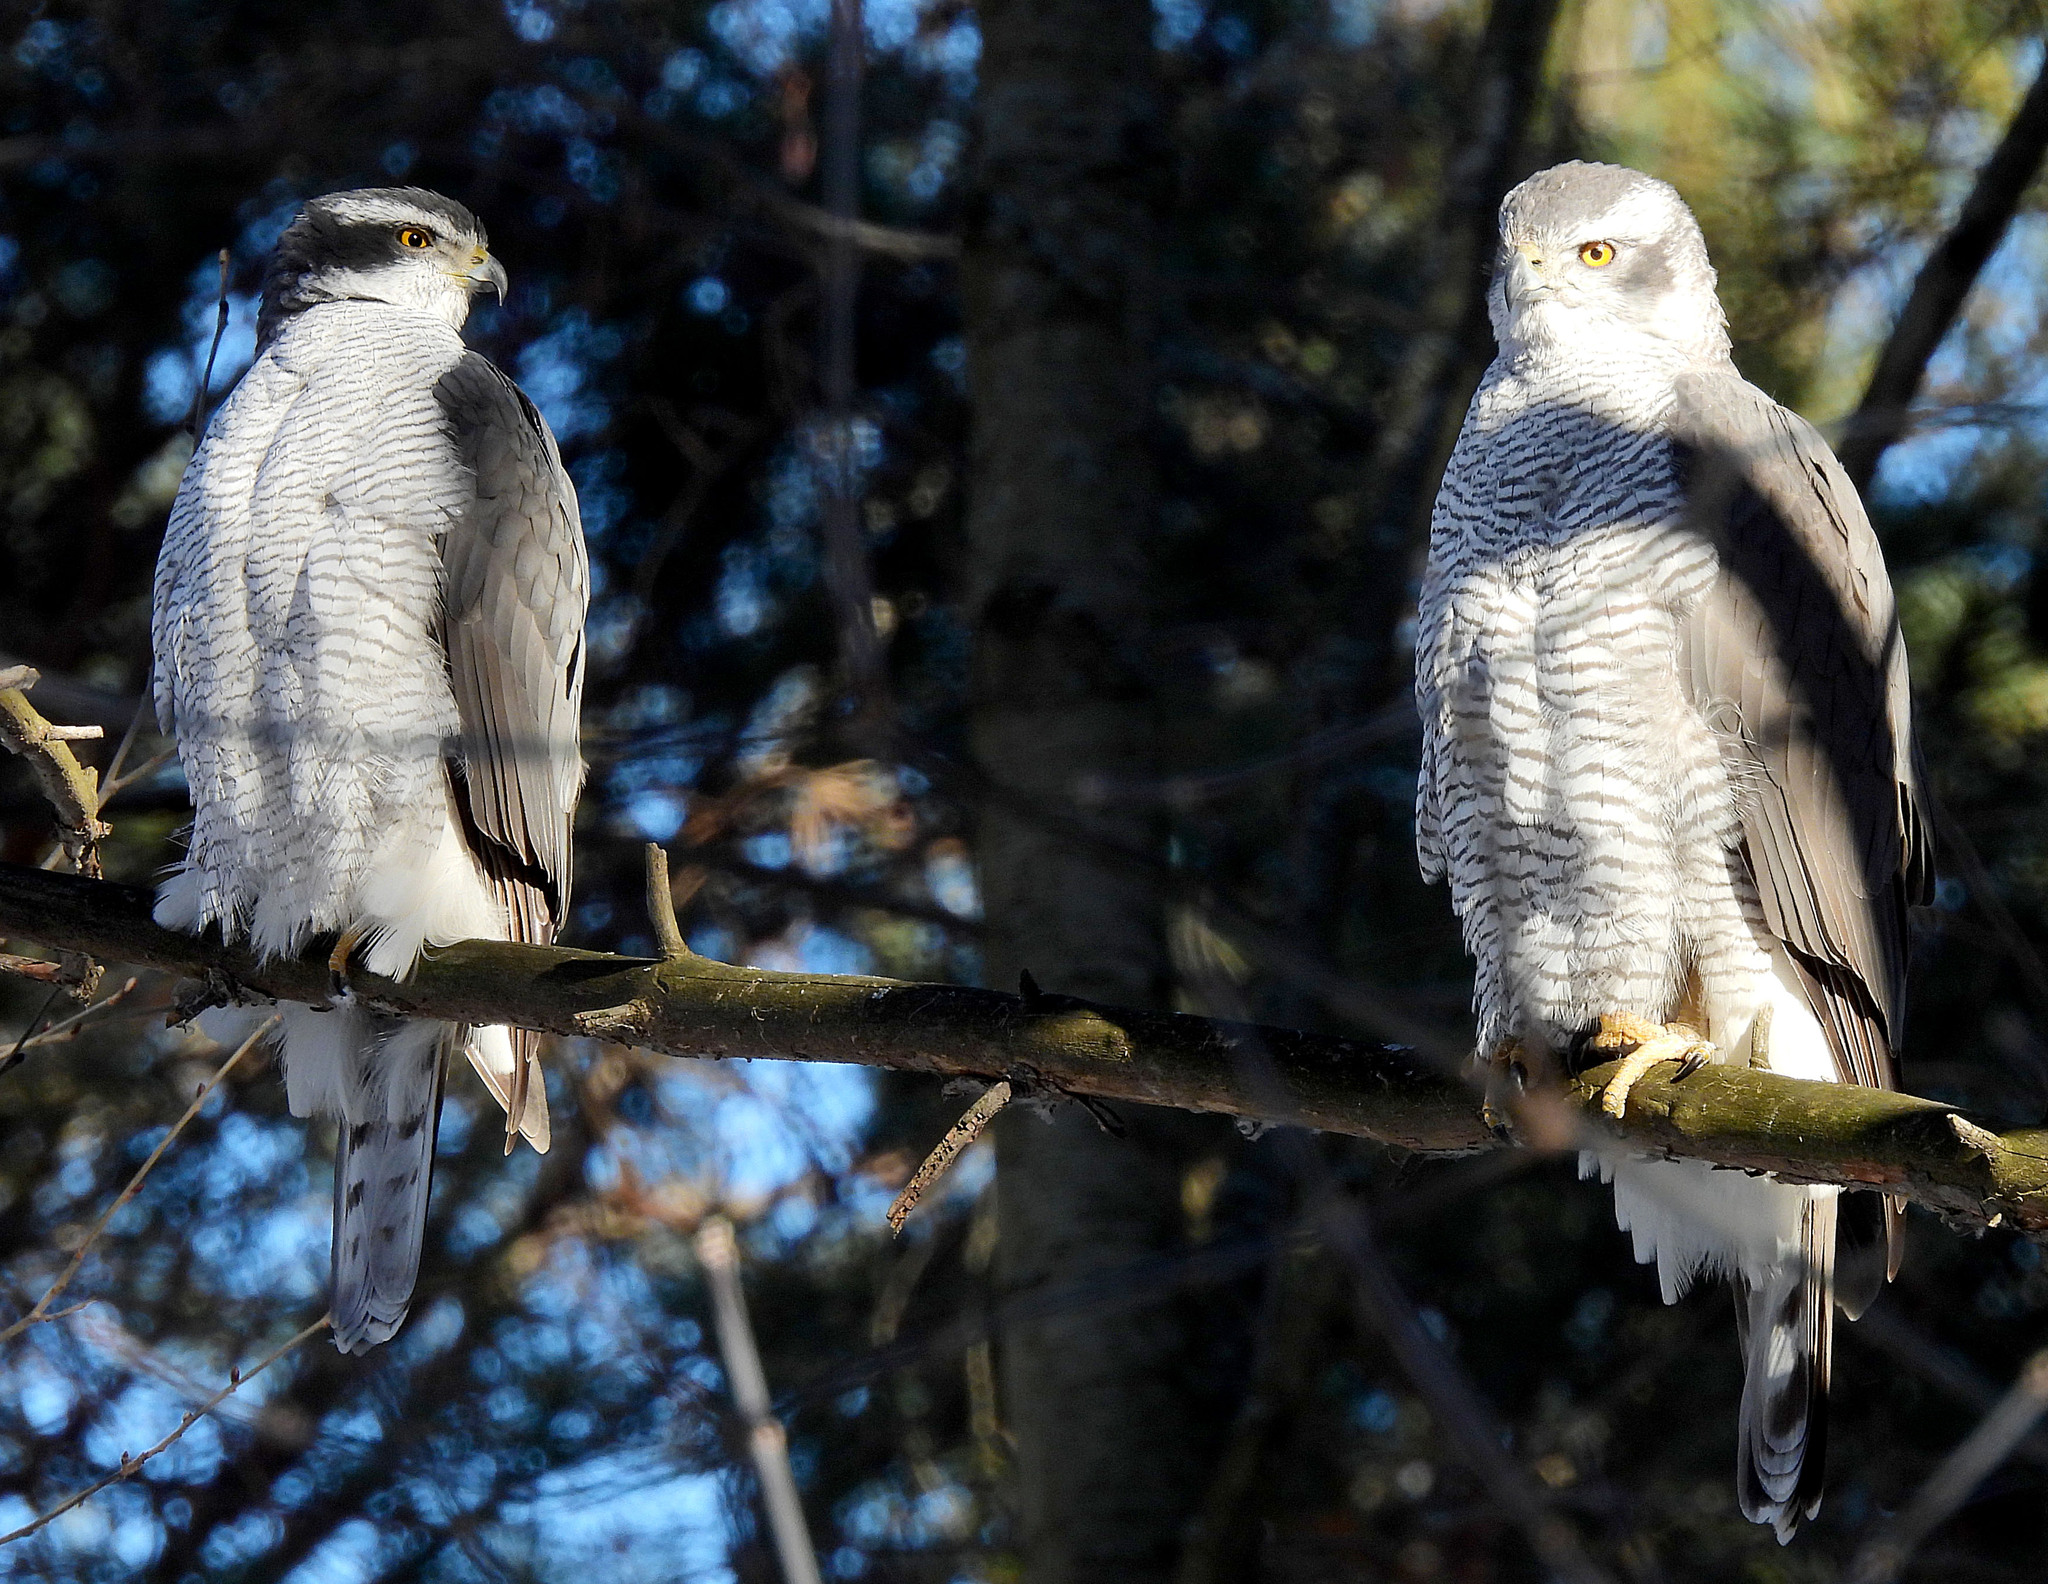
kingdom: Animalia
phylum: Chordata
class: Aves
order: Accipitriformes
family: Accipitridae
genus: Accipiter
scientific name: Accipiter gentilis
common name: Northern goshawk
